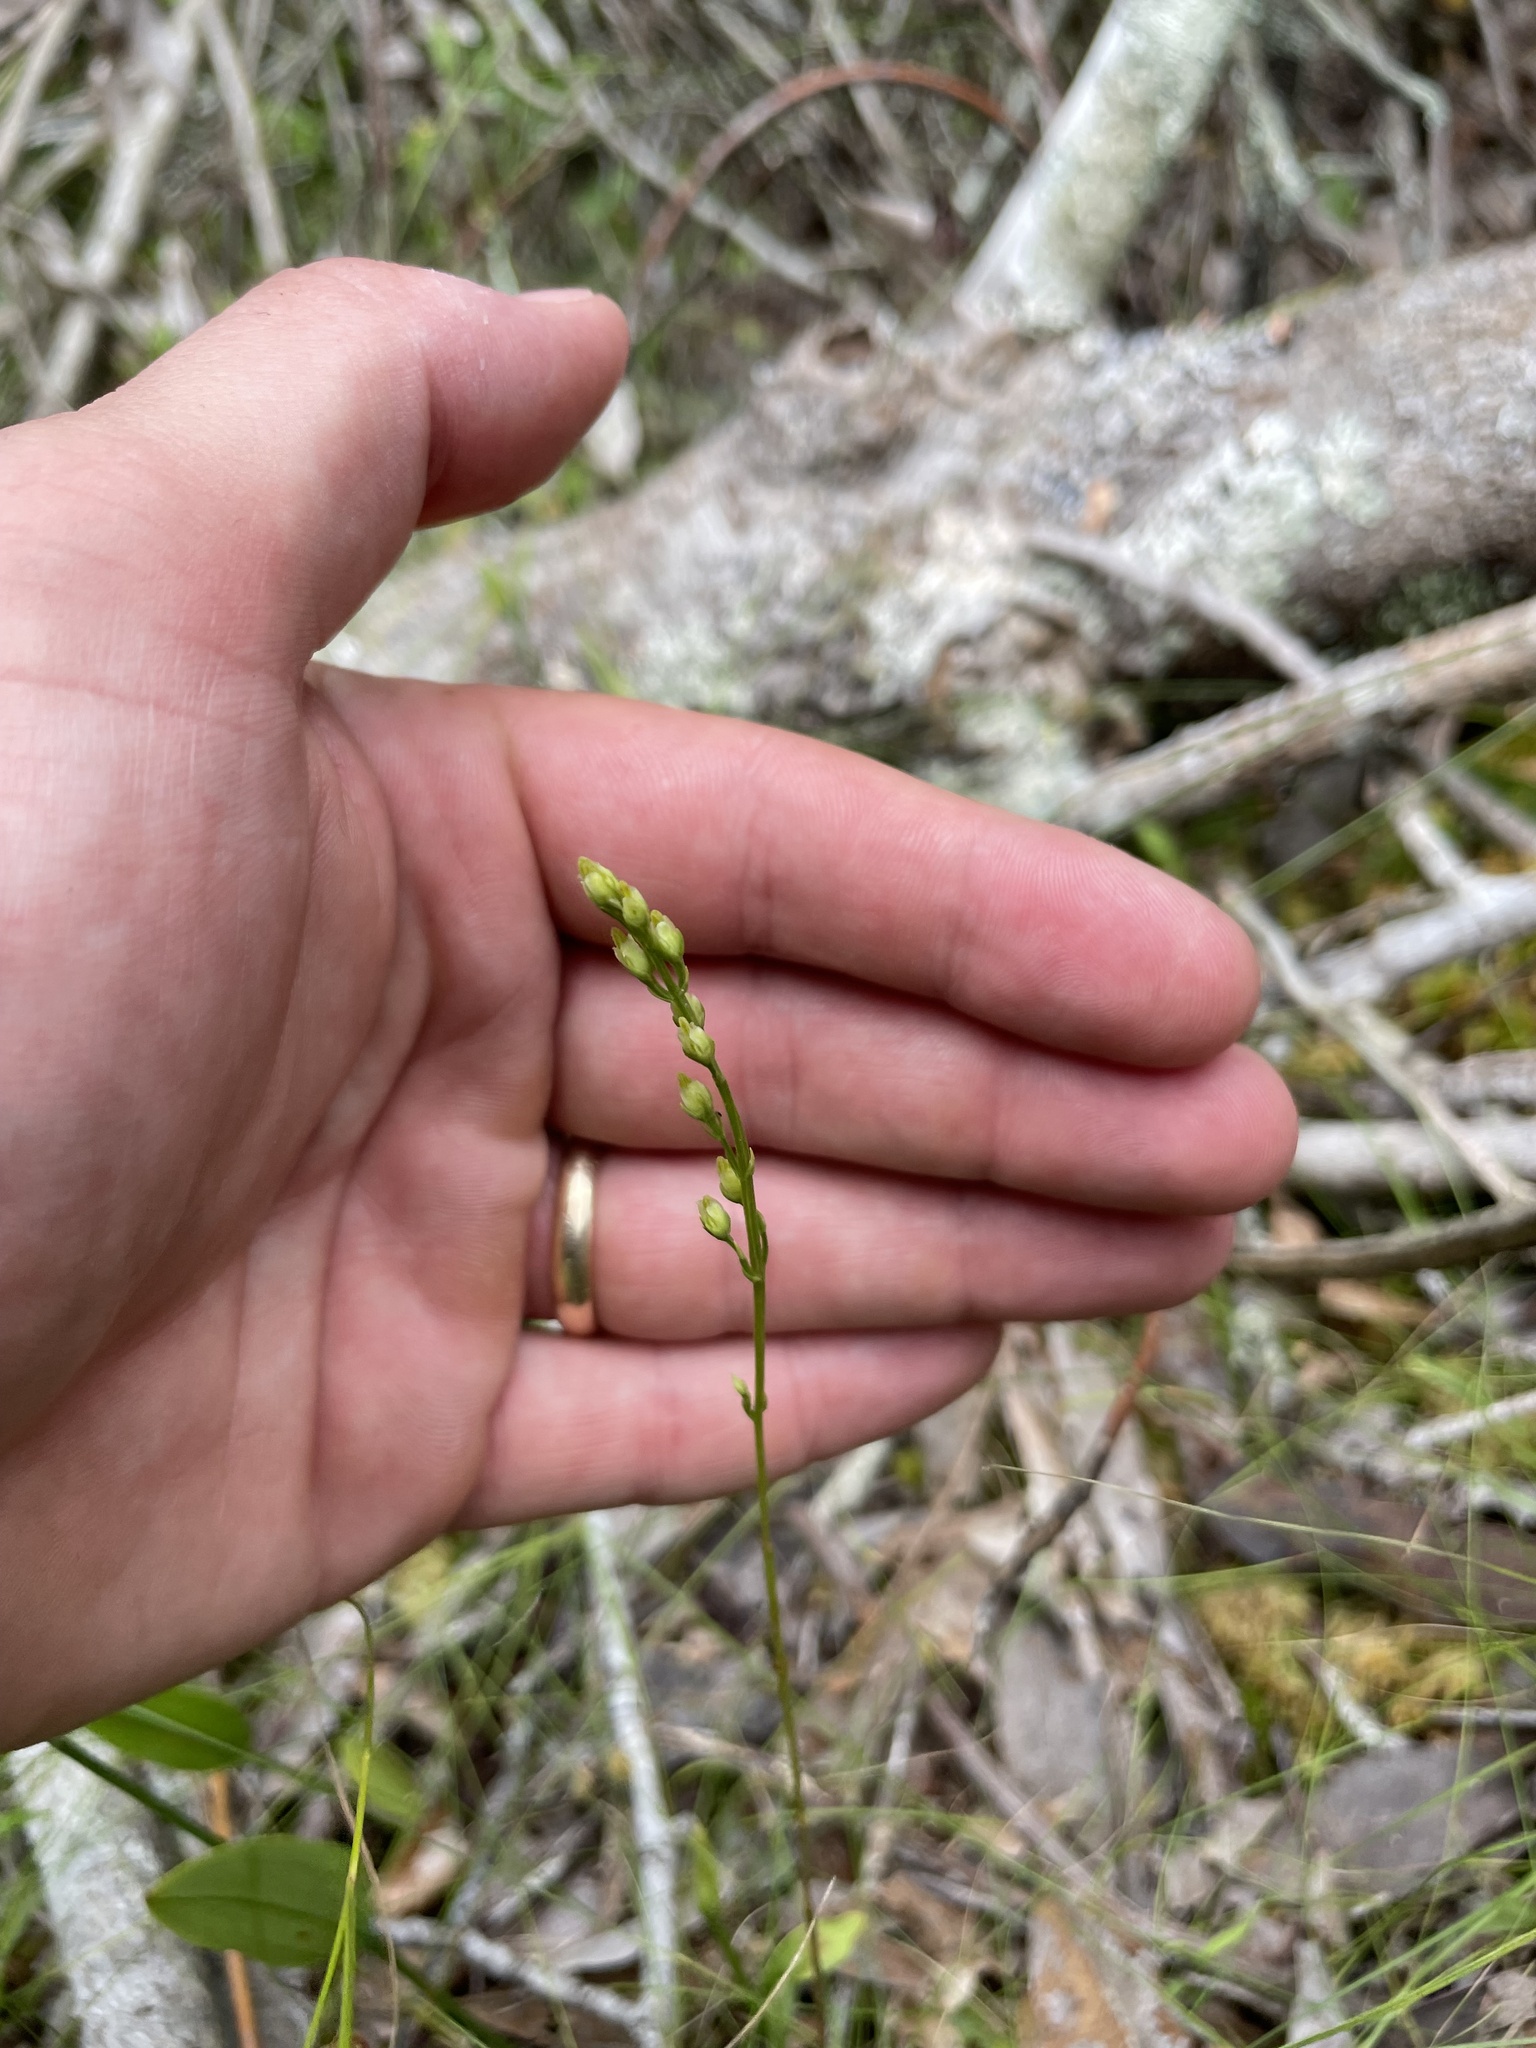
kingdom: Plantae
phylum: Tracheophyta
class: Magnoliopsida
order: Gentianales
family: Gentianaceae
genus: Bartonia
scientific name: Bartonia virginica
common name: Yellow bartonia
